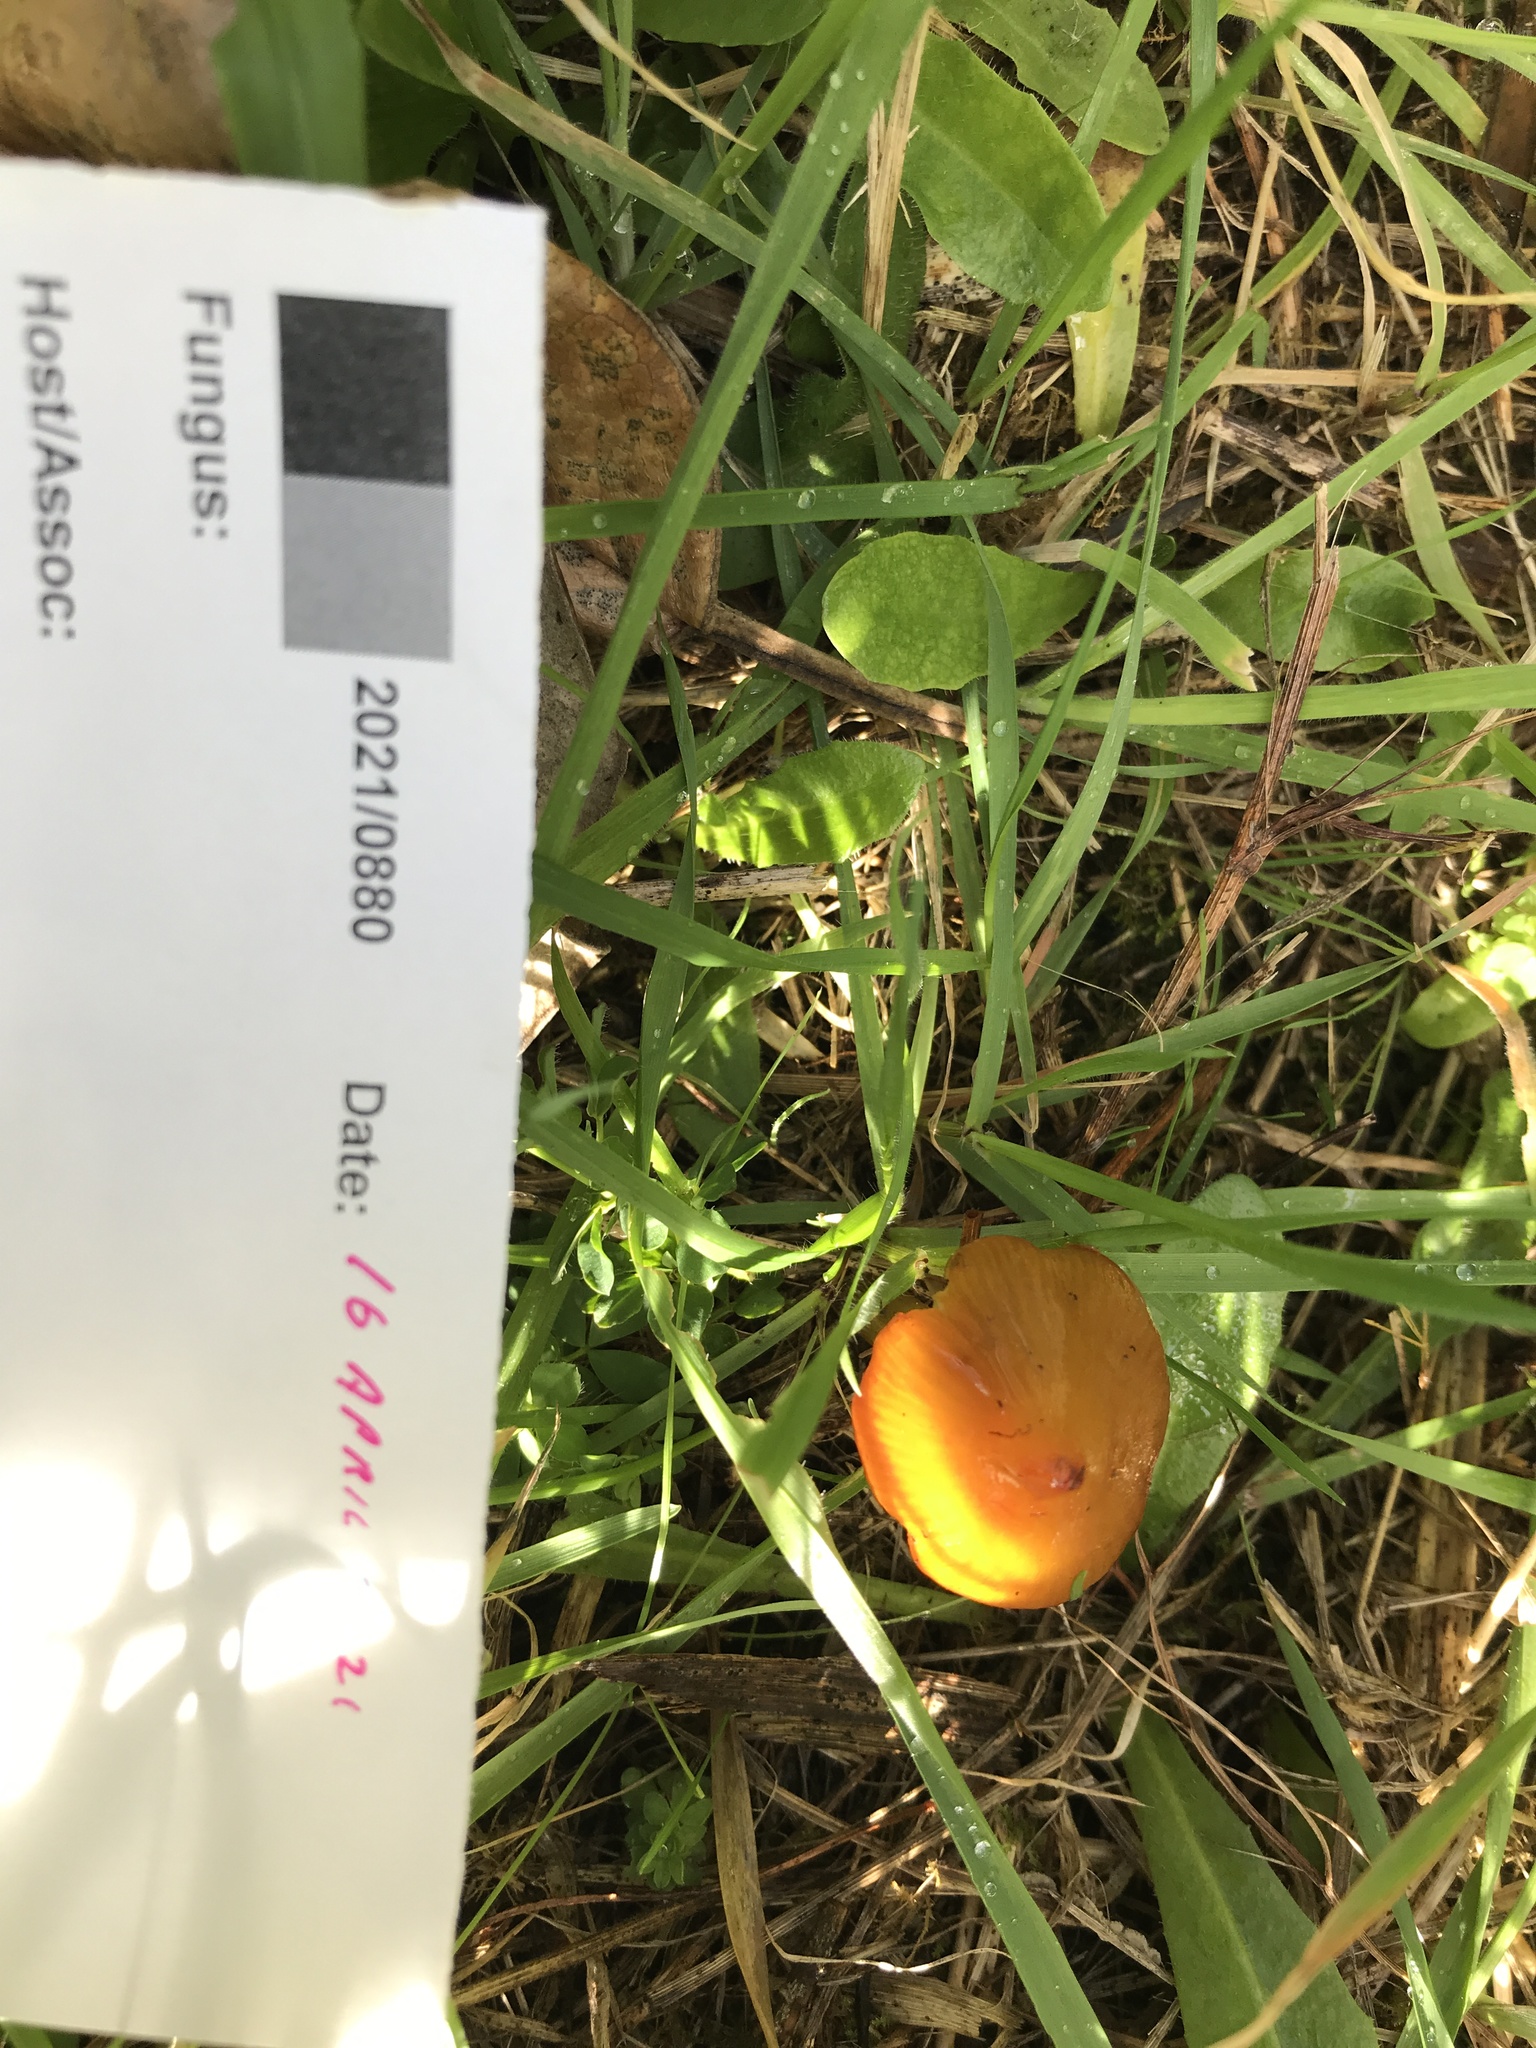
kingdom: Fungi
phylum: Basidiomycota
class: Agaricomycetes
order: Agaricales
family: Hygrophoraceae
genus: Hygrocybe
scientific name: Hygrocybe conica
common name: Blackening wax-cap
